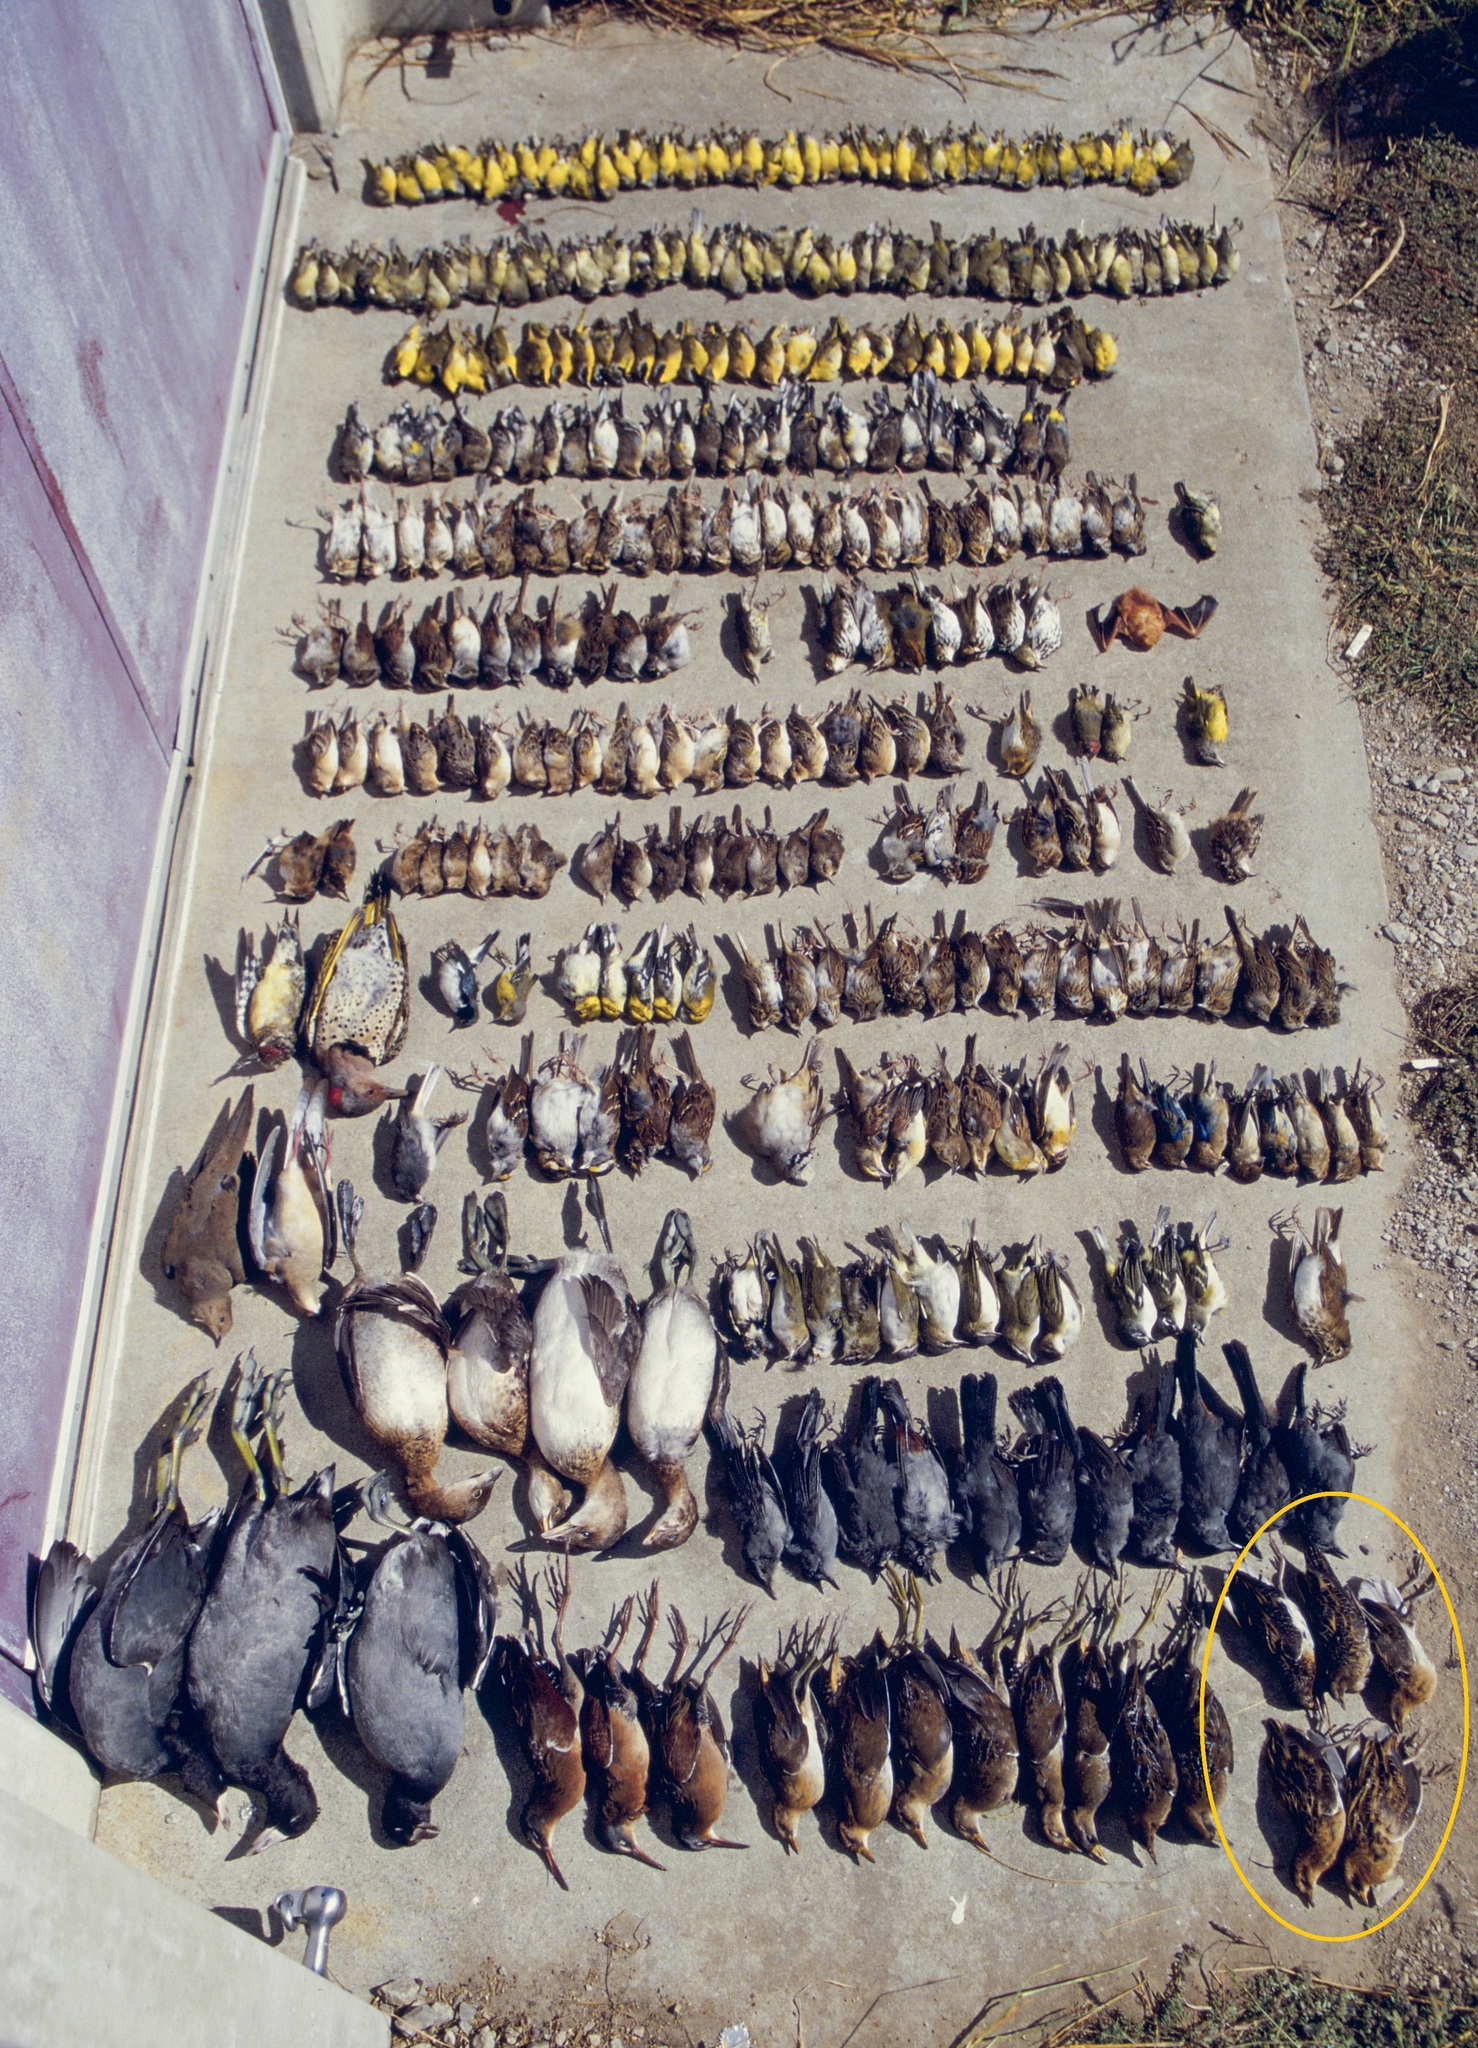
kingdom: Animalia
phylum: Chordata
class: Aves
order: Gruiformes
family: Rallidae
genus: Coturnicops
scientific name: Coturnicops noveboracensis
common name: Yellow rail
